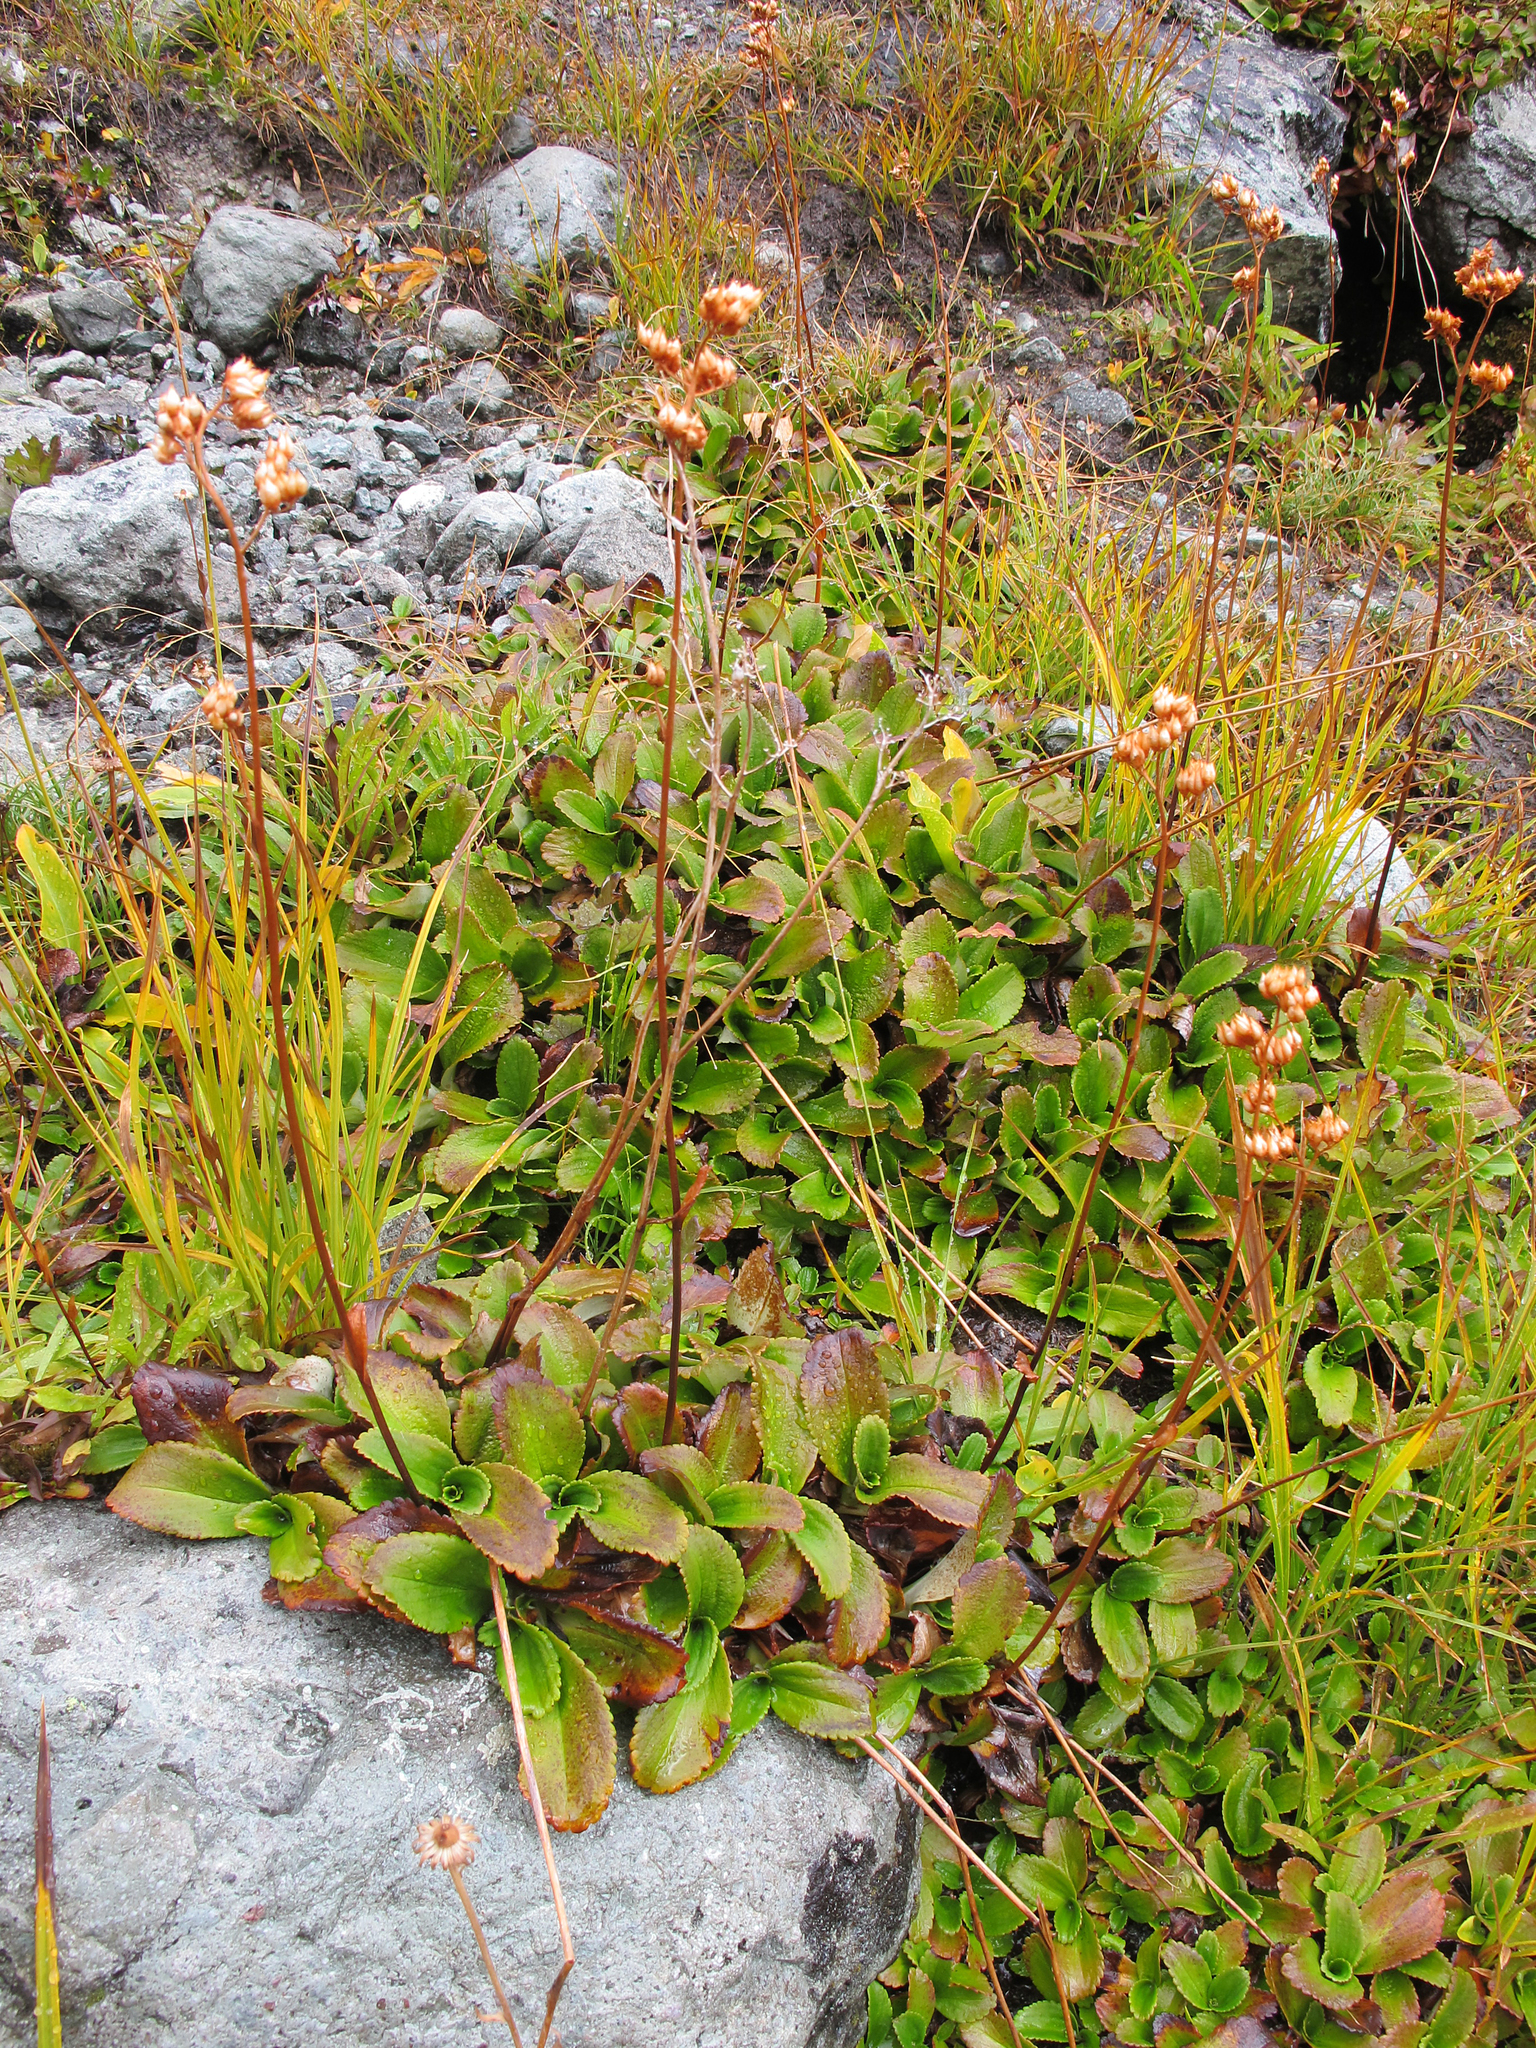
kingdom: Plantae
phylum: Tracheophyta
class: Magnoliopsida
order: Saxifragales
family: Saxifragaceae
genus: Leptarrhena
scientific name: Leptarrhena pyrolifolia
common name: Leatherleaf-saxifrage
